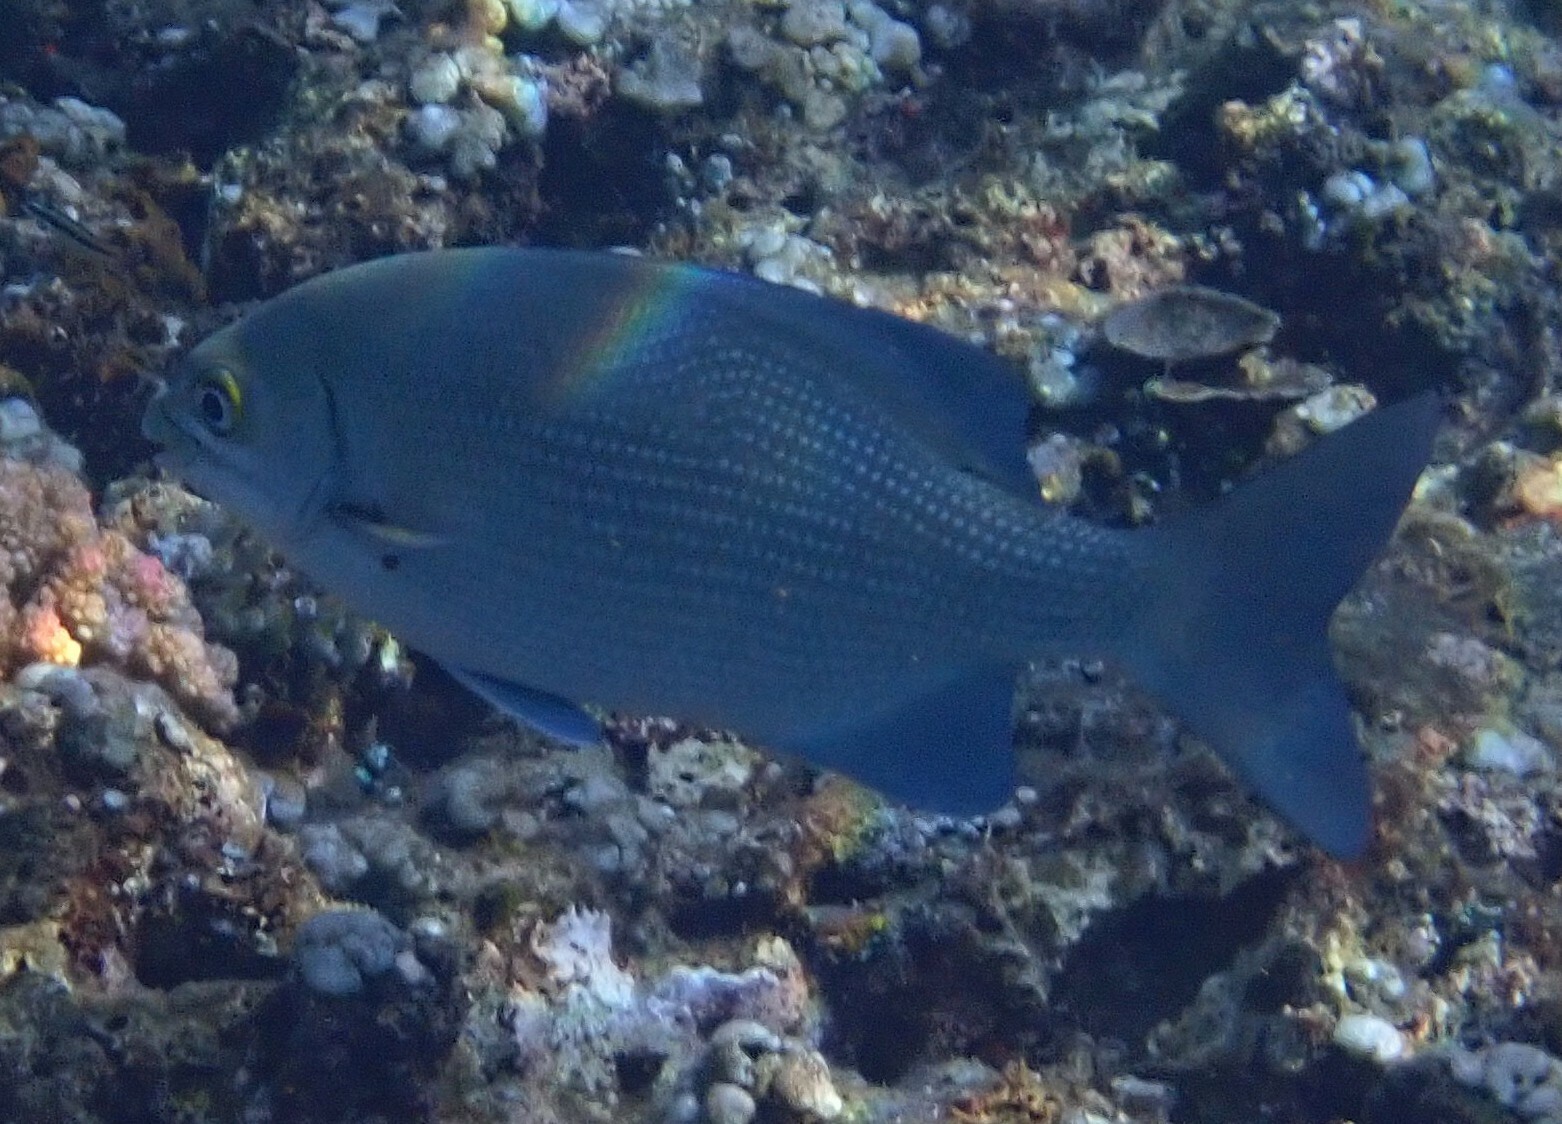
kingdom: Animalia
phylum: Chordata
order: Perciformes
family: Kyphosidae
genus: Kyphosus
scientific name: Kyphosus cinerascens
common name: Topsail drummer
